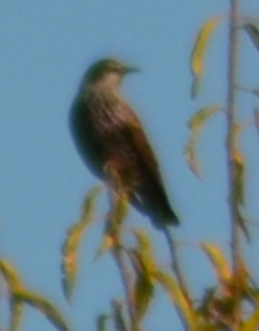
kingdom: Animalia
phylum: Chordata
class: Aves
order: Passeriformes
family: Sturnidae
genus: Sturnus
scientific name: Sturnus vulgaris
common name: Common starling
